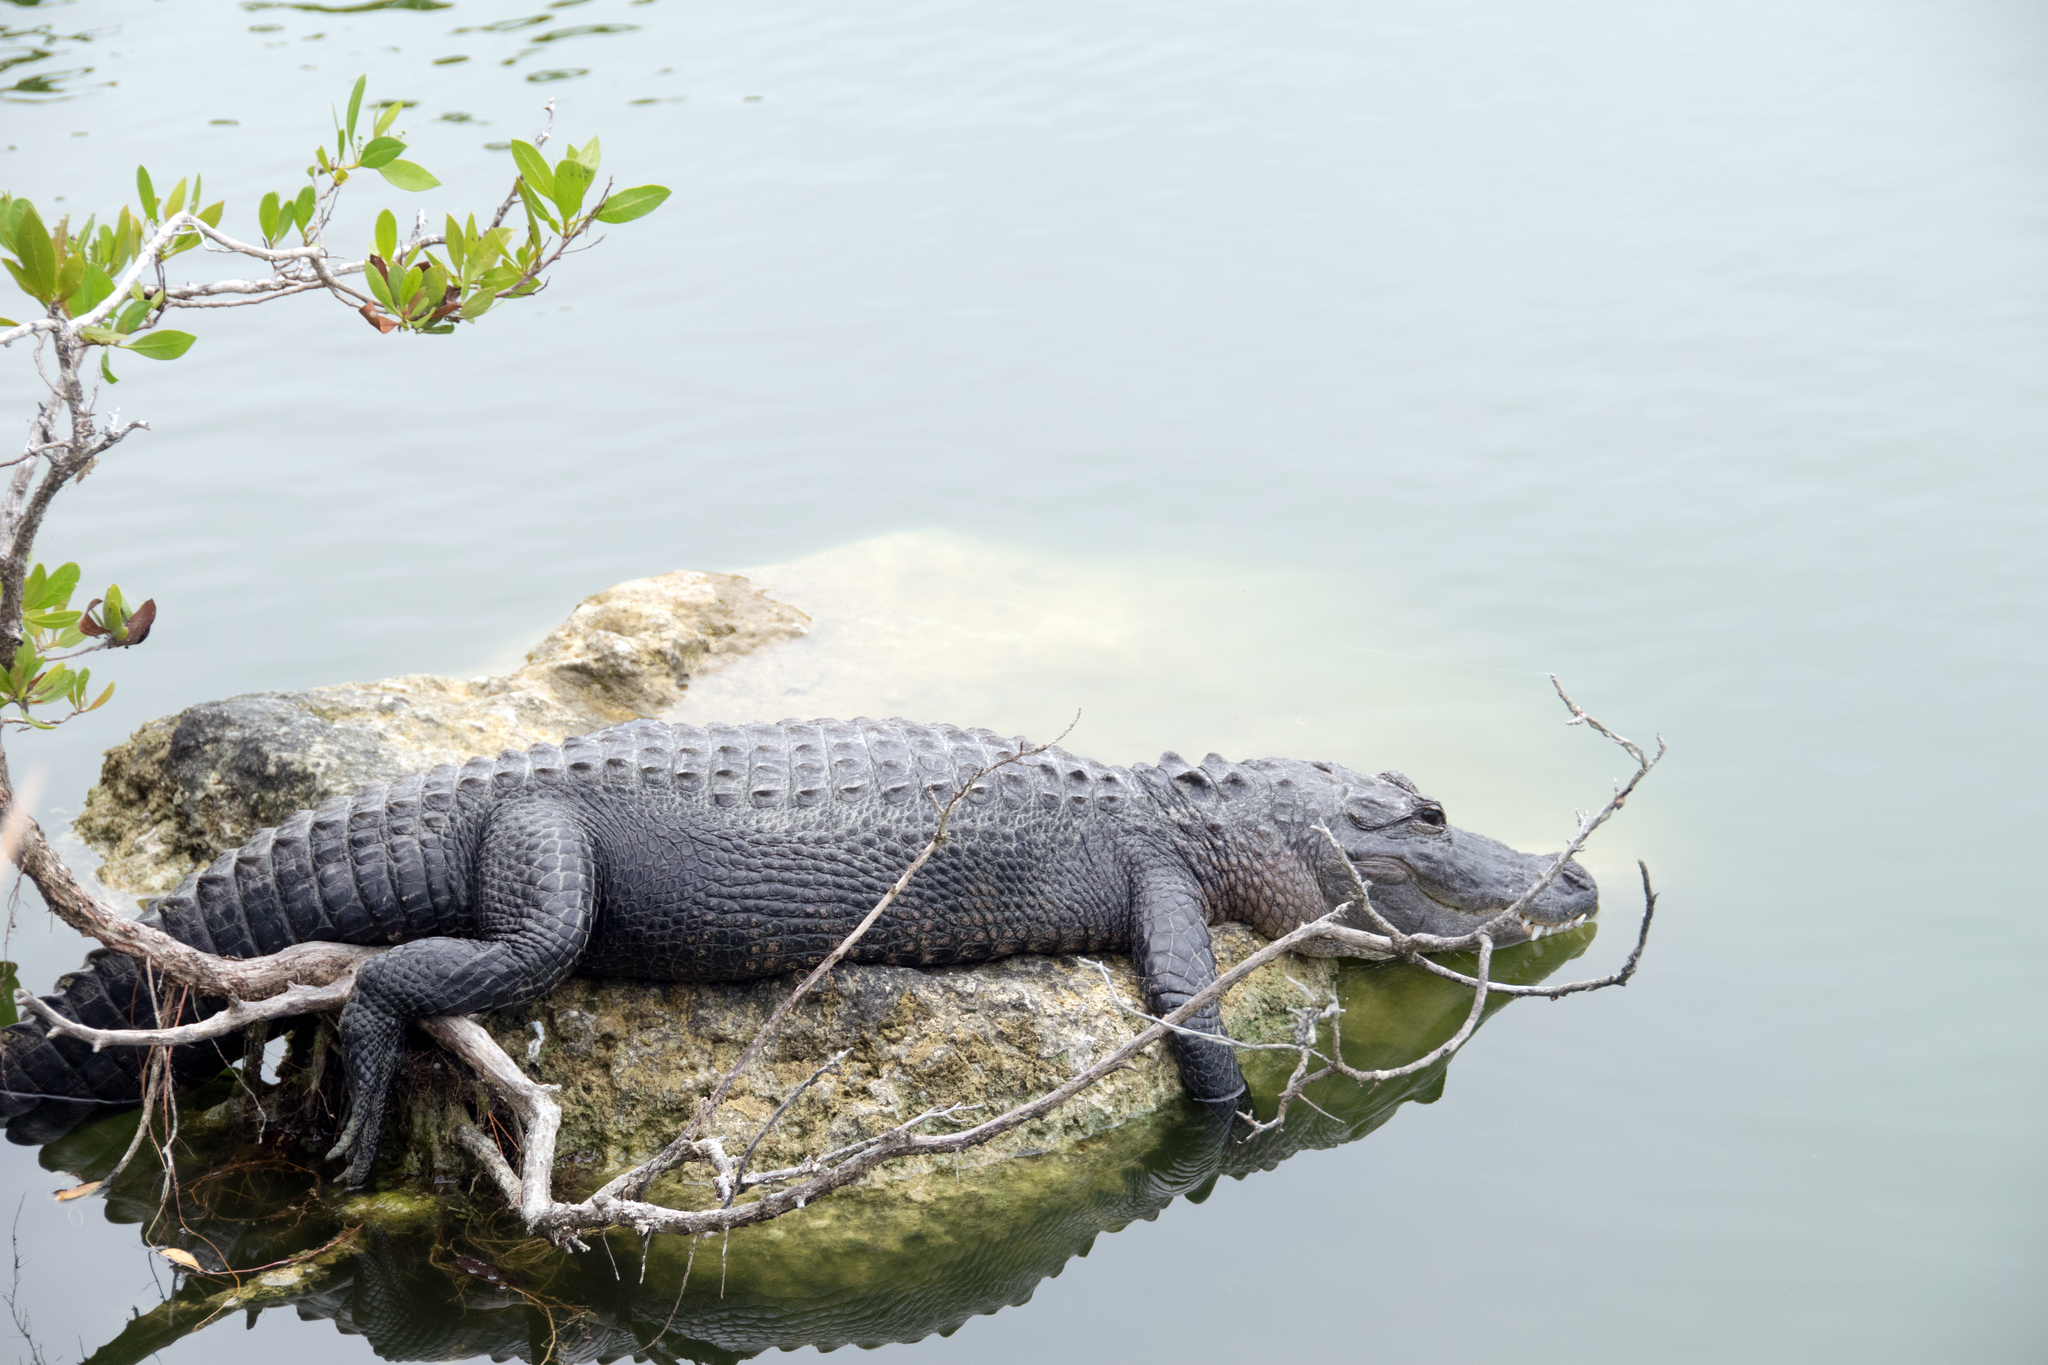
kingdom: Animalia
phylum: Chordata
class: Crocodylia
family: Alligatoridae
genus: Alligator
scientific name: Alligator mississippiensis
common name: American alligator
